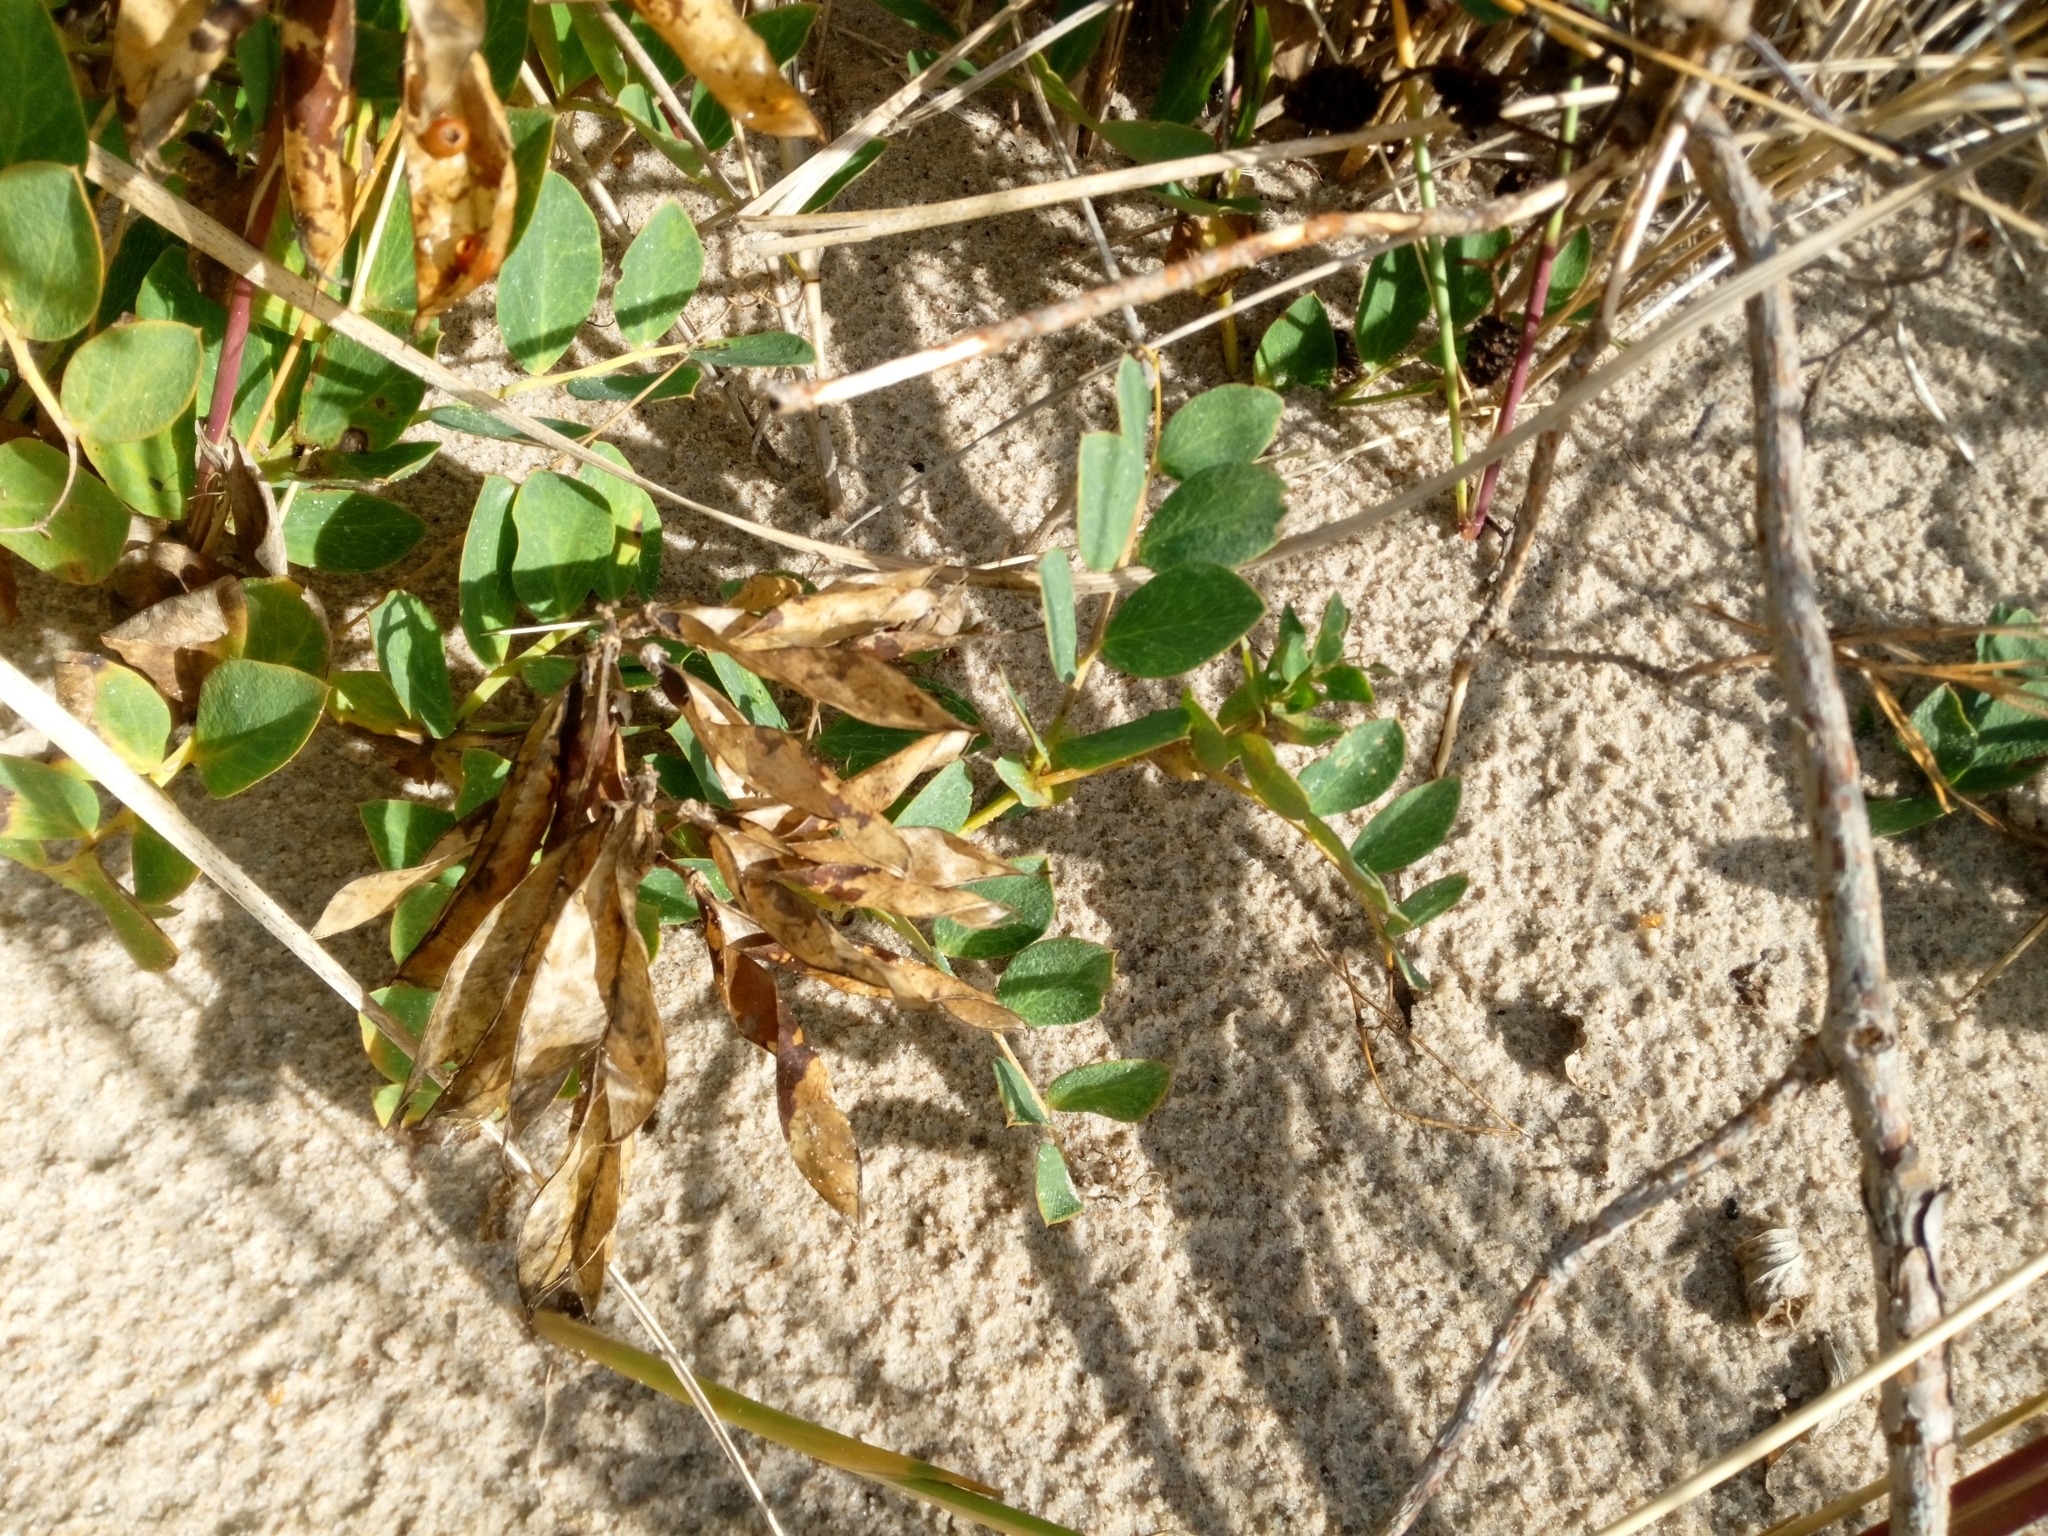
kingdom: Plantae
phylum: Tracheophyta
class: Magnoliopsida
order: Fabales
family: Fabaceae
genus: Lathyrus
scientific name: Lathyrus japonicus
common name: Sea pea
